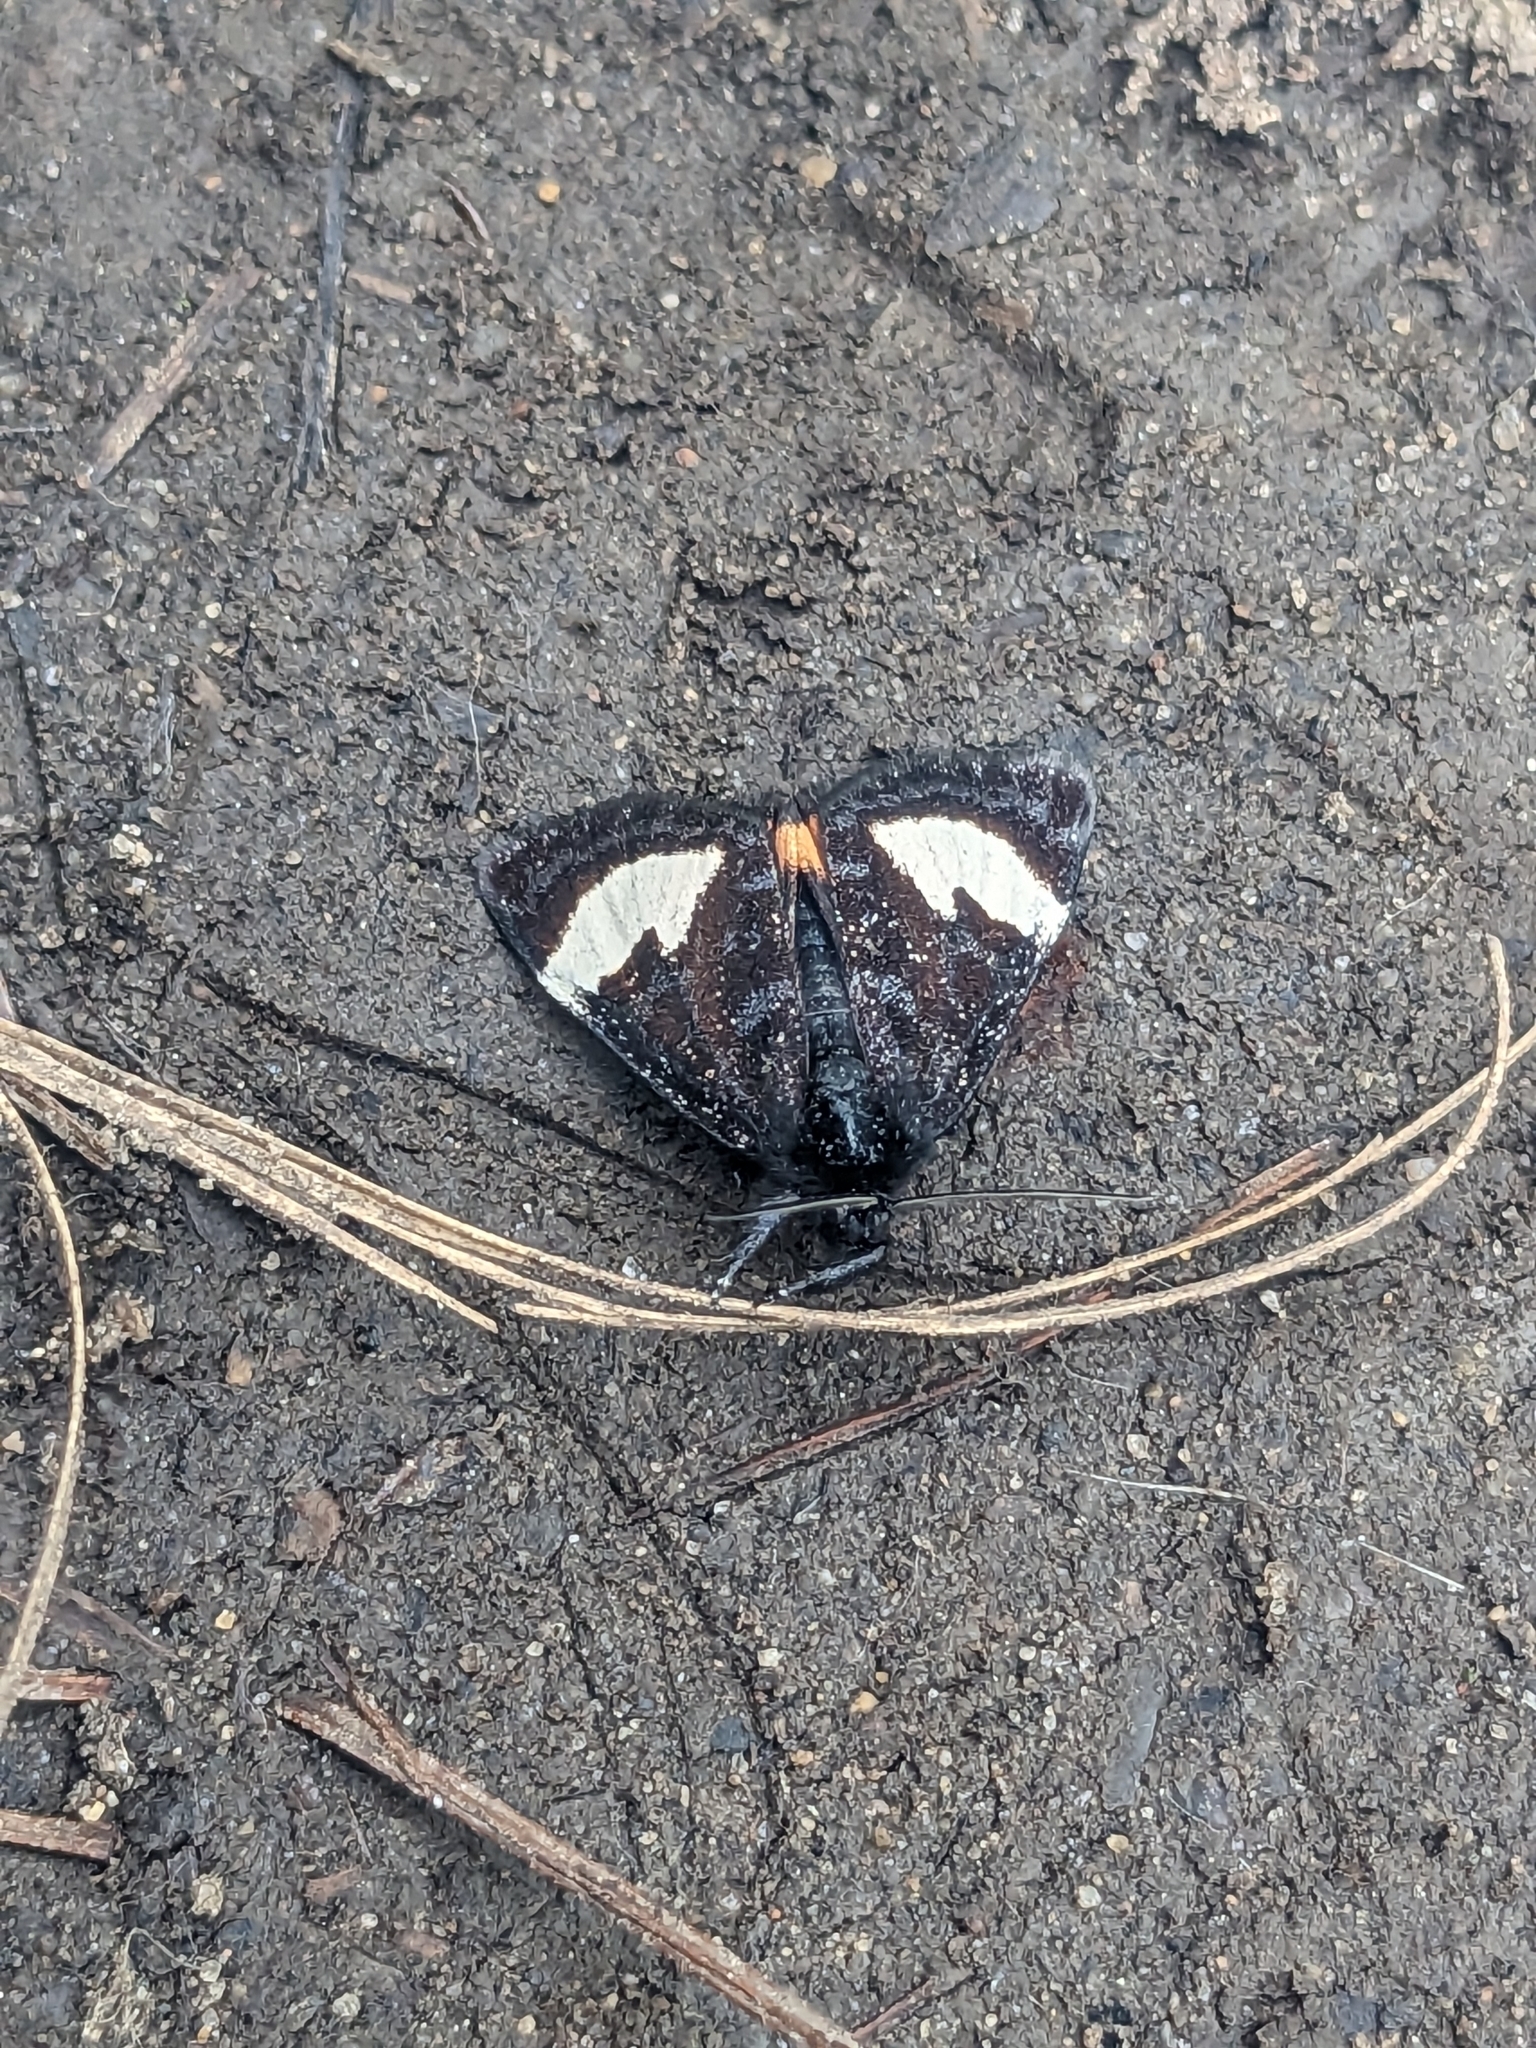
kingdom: Animalia
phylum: Arthropoda
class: Insecta
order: Lepidoptera
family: Noctuidae
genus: Psychomorpha
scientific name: Psychomorpha epimenis
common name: Grapevine epimenis moth
